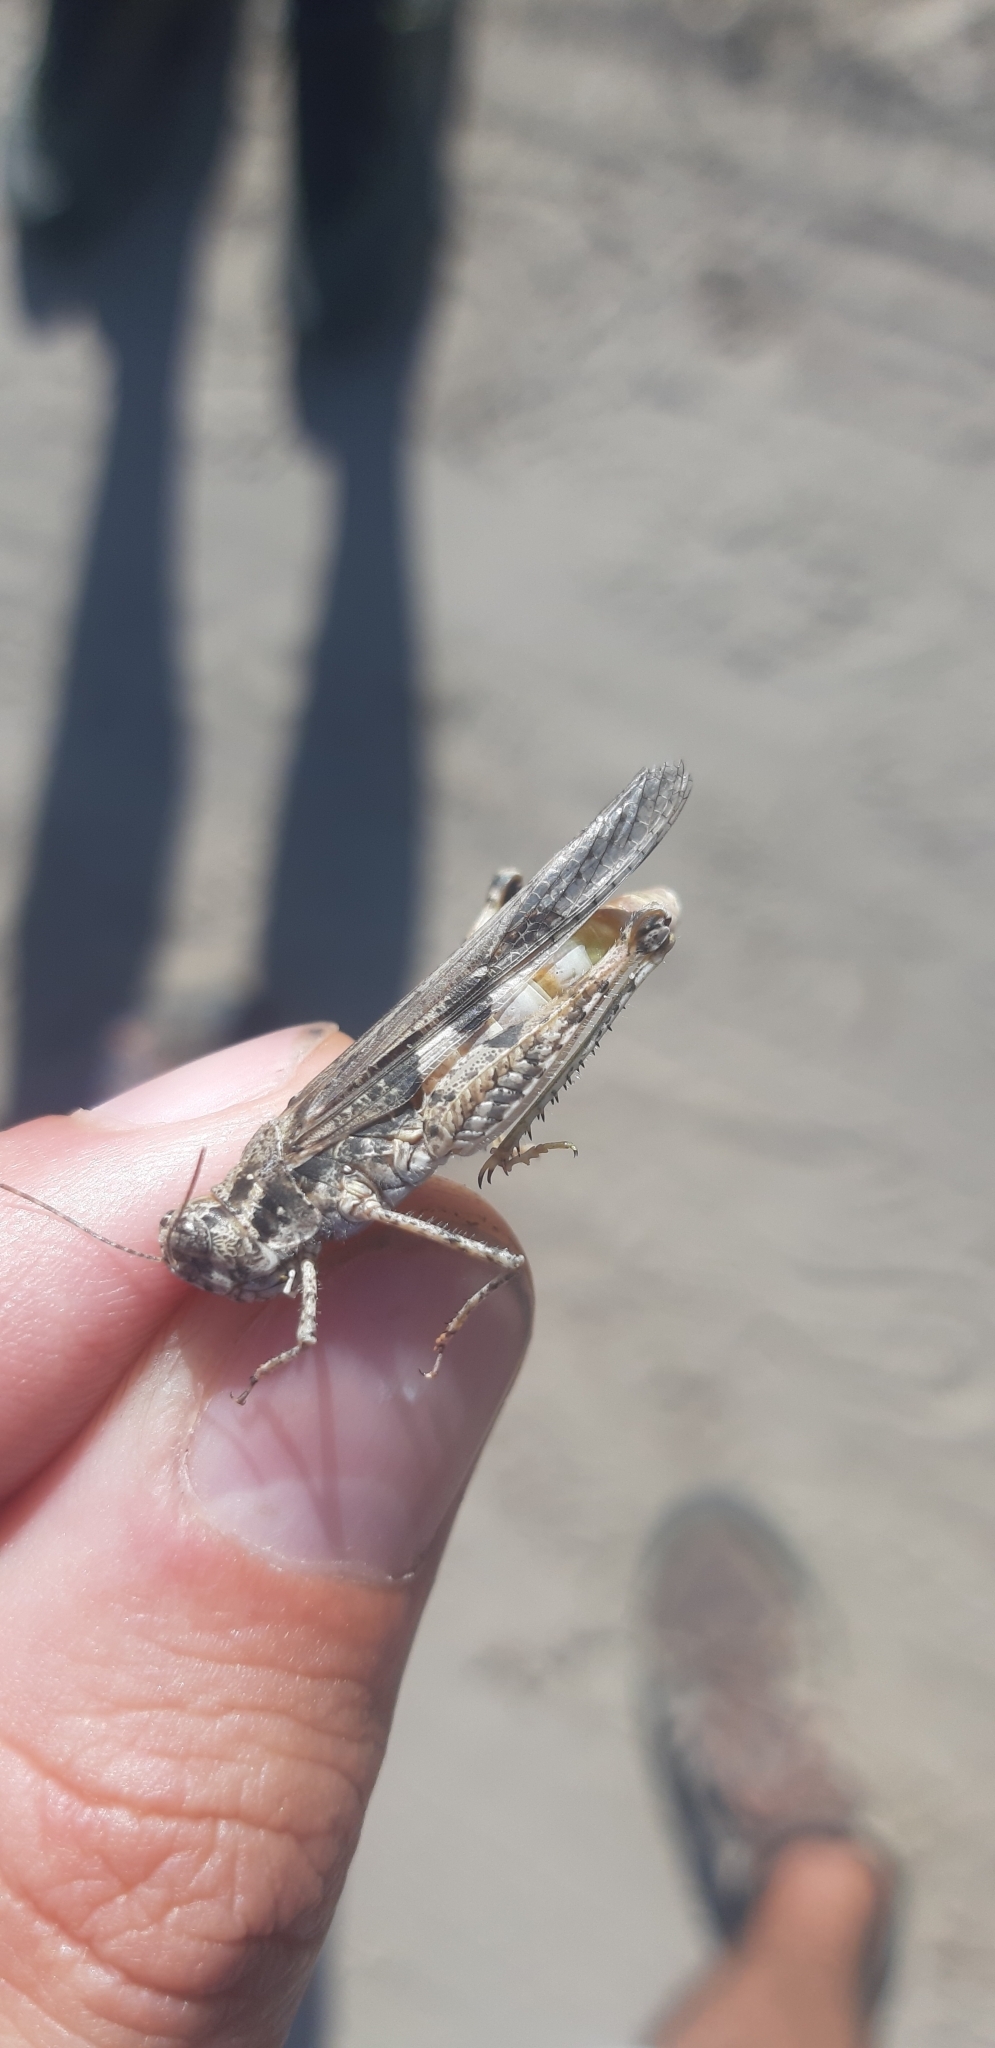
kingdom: Animalia
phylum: Arthropoda
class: Insecta
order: Orthoptera
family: Acrididae
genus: Acrotylus
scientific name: Acrotylus longipes
